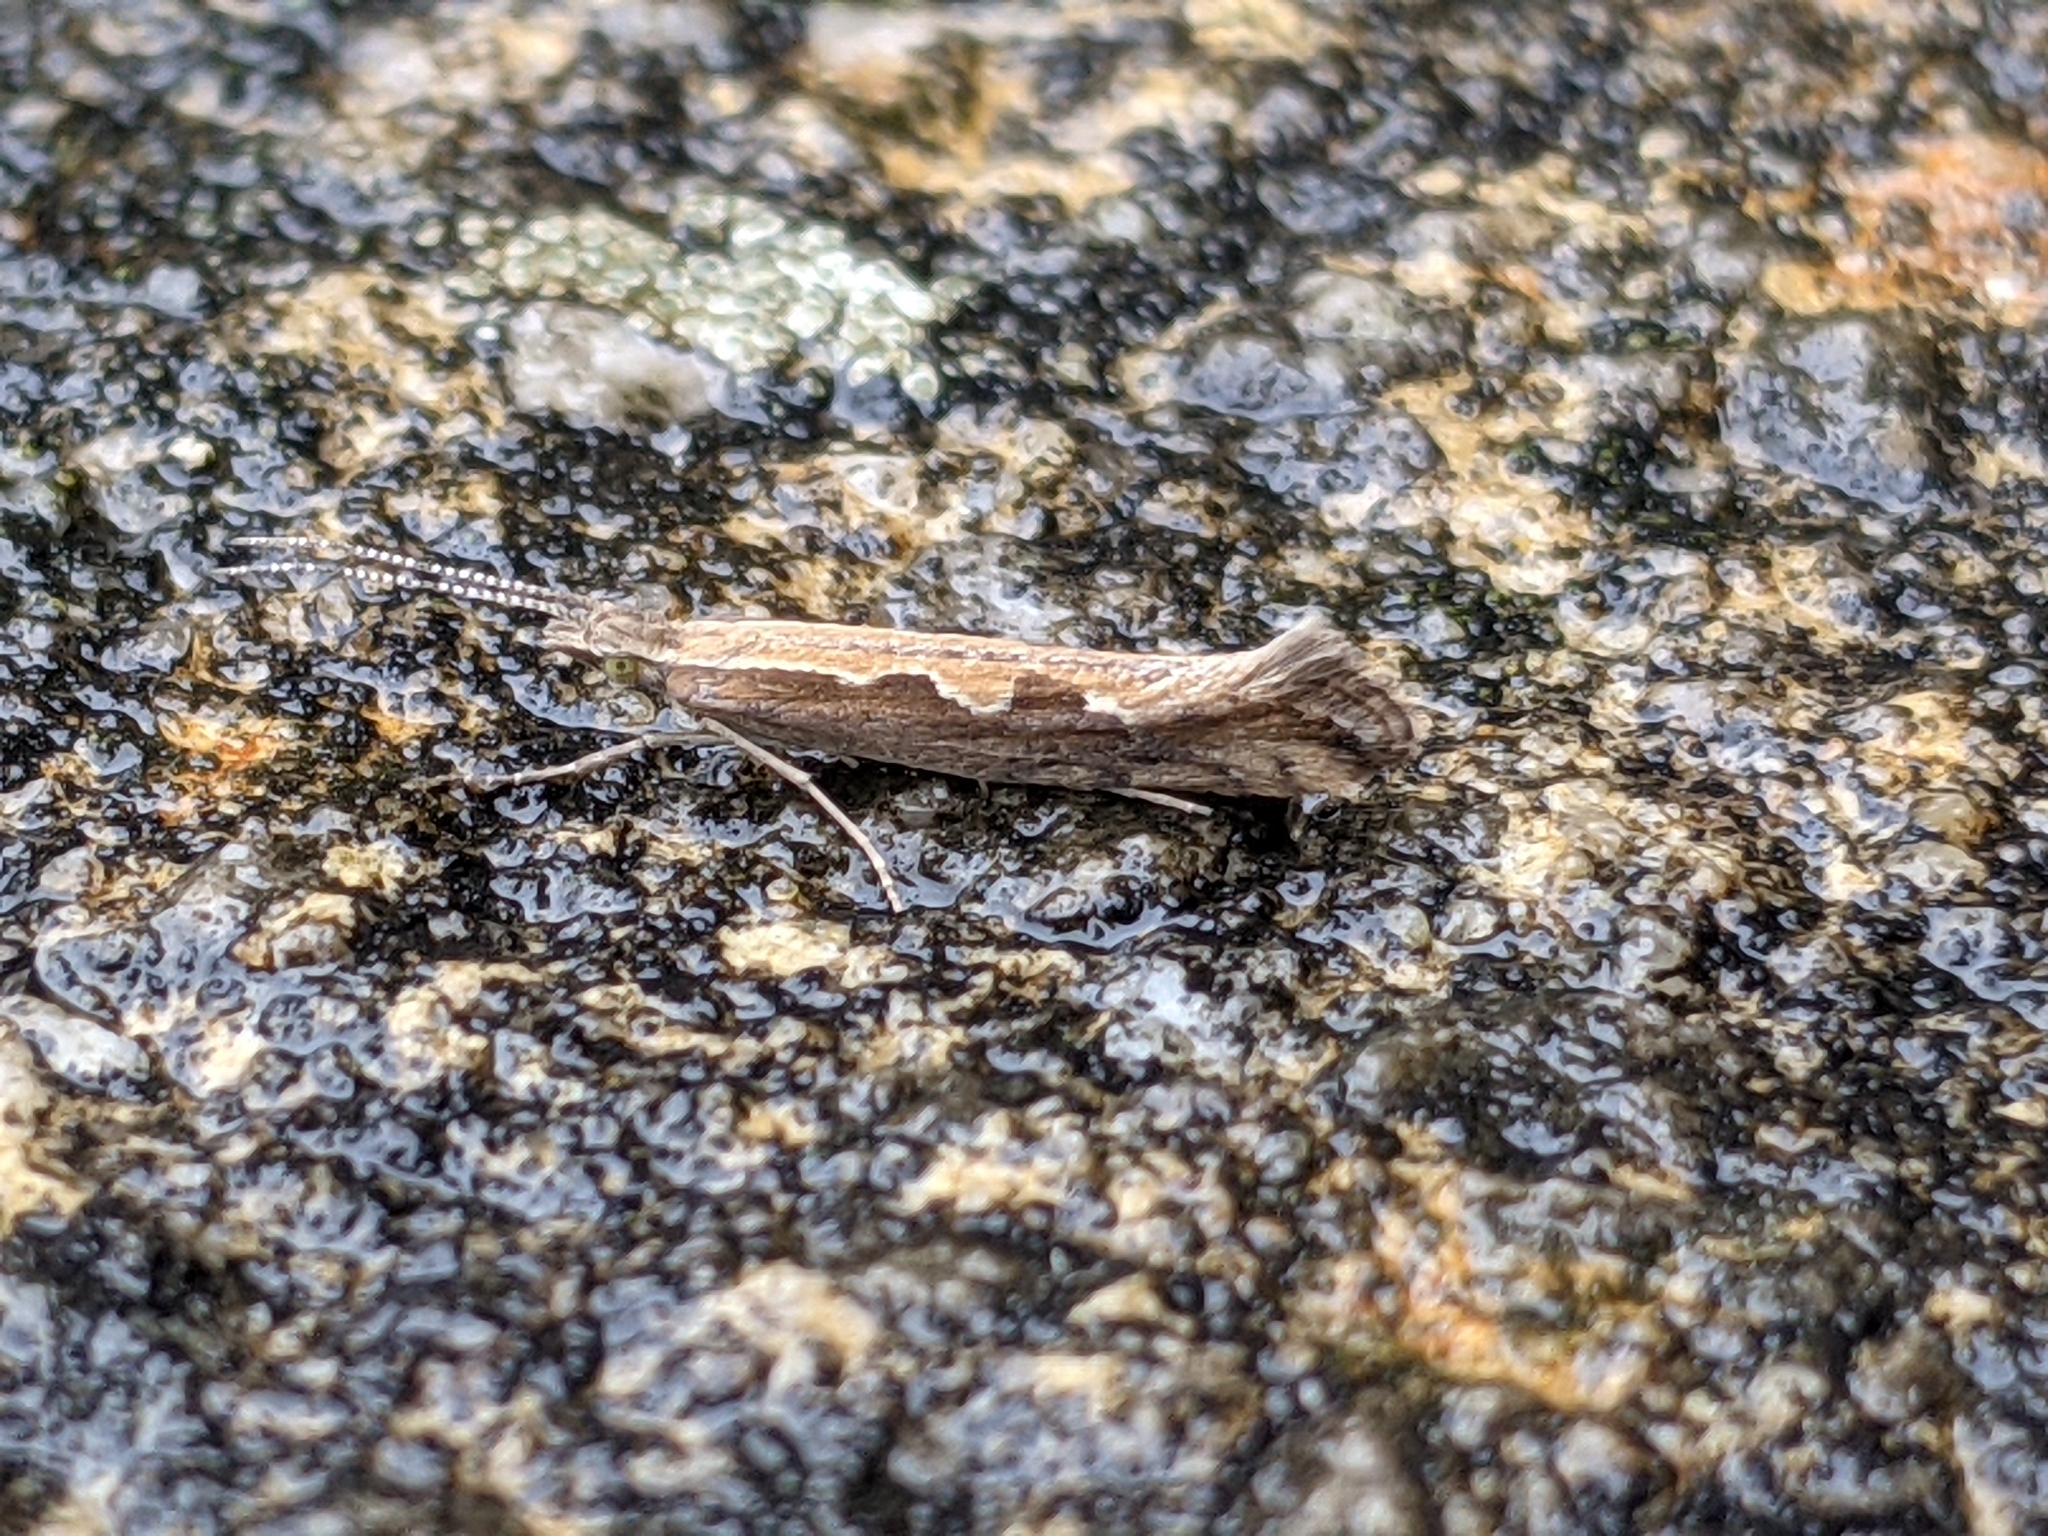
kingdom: Animalia
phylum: Arthropoda
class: Insecta
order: Lepidoptera
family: Plutellidae
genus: Plutella
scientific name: Plutella xylostella
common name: Diamond-back moth
